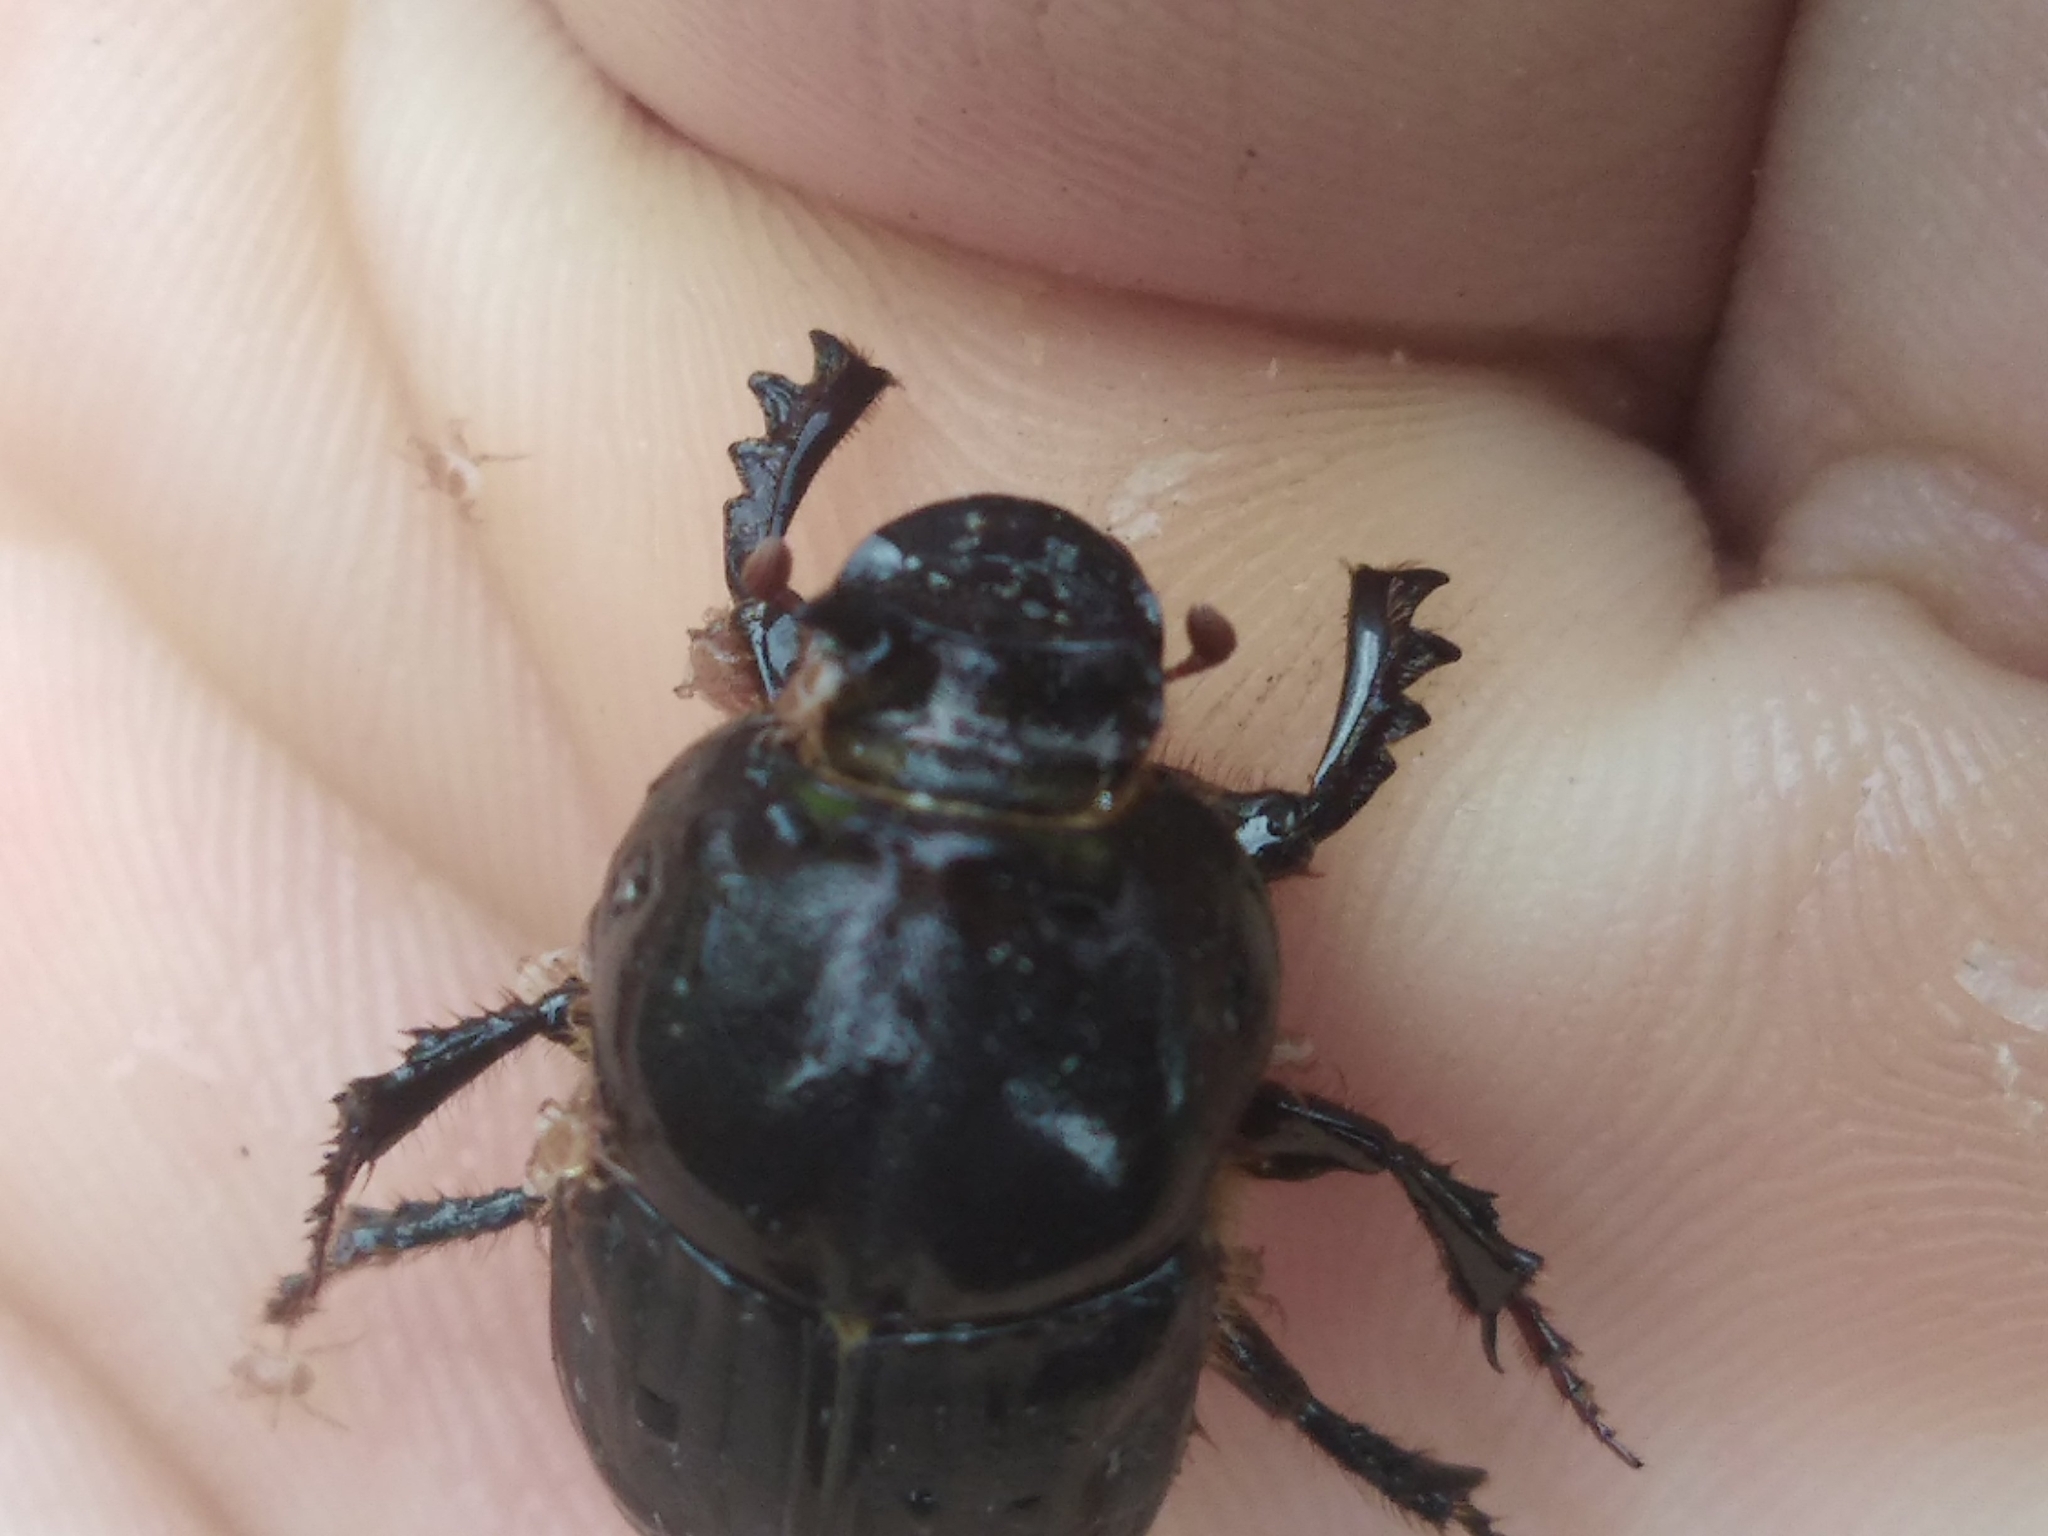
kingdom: Animalia
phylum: Arthropoda
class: Insecta
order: Coleoptera
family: Scarabaeidae
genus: Bubas
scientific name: Bubas bubalus
